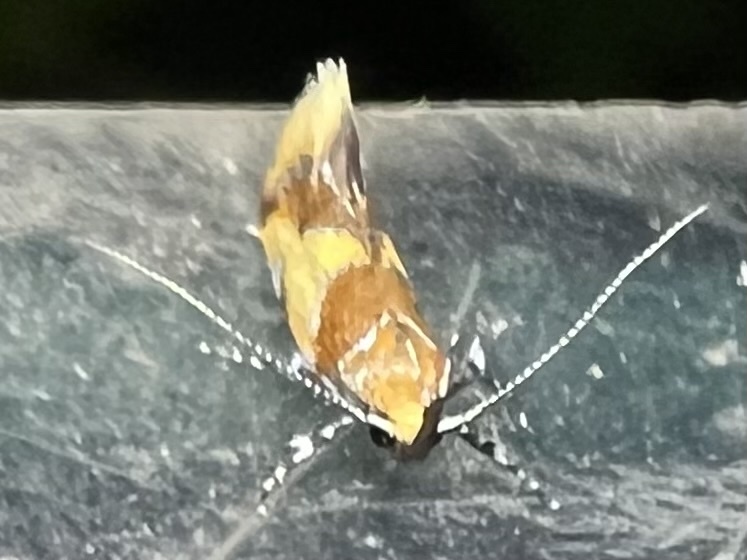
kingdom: Animalia
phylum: Arthropoda
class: Insecta
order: Lepidoptera
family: Oecophoridae
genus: Callima
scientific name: Callima argenticinctella
